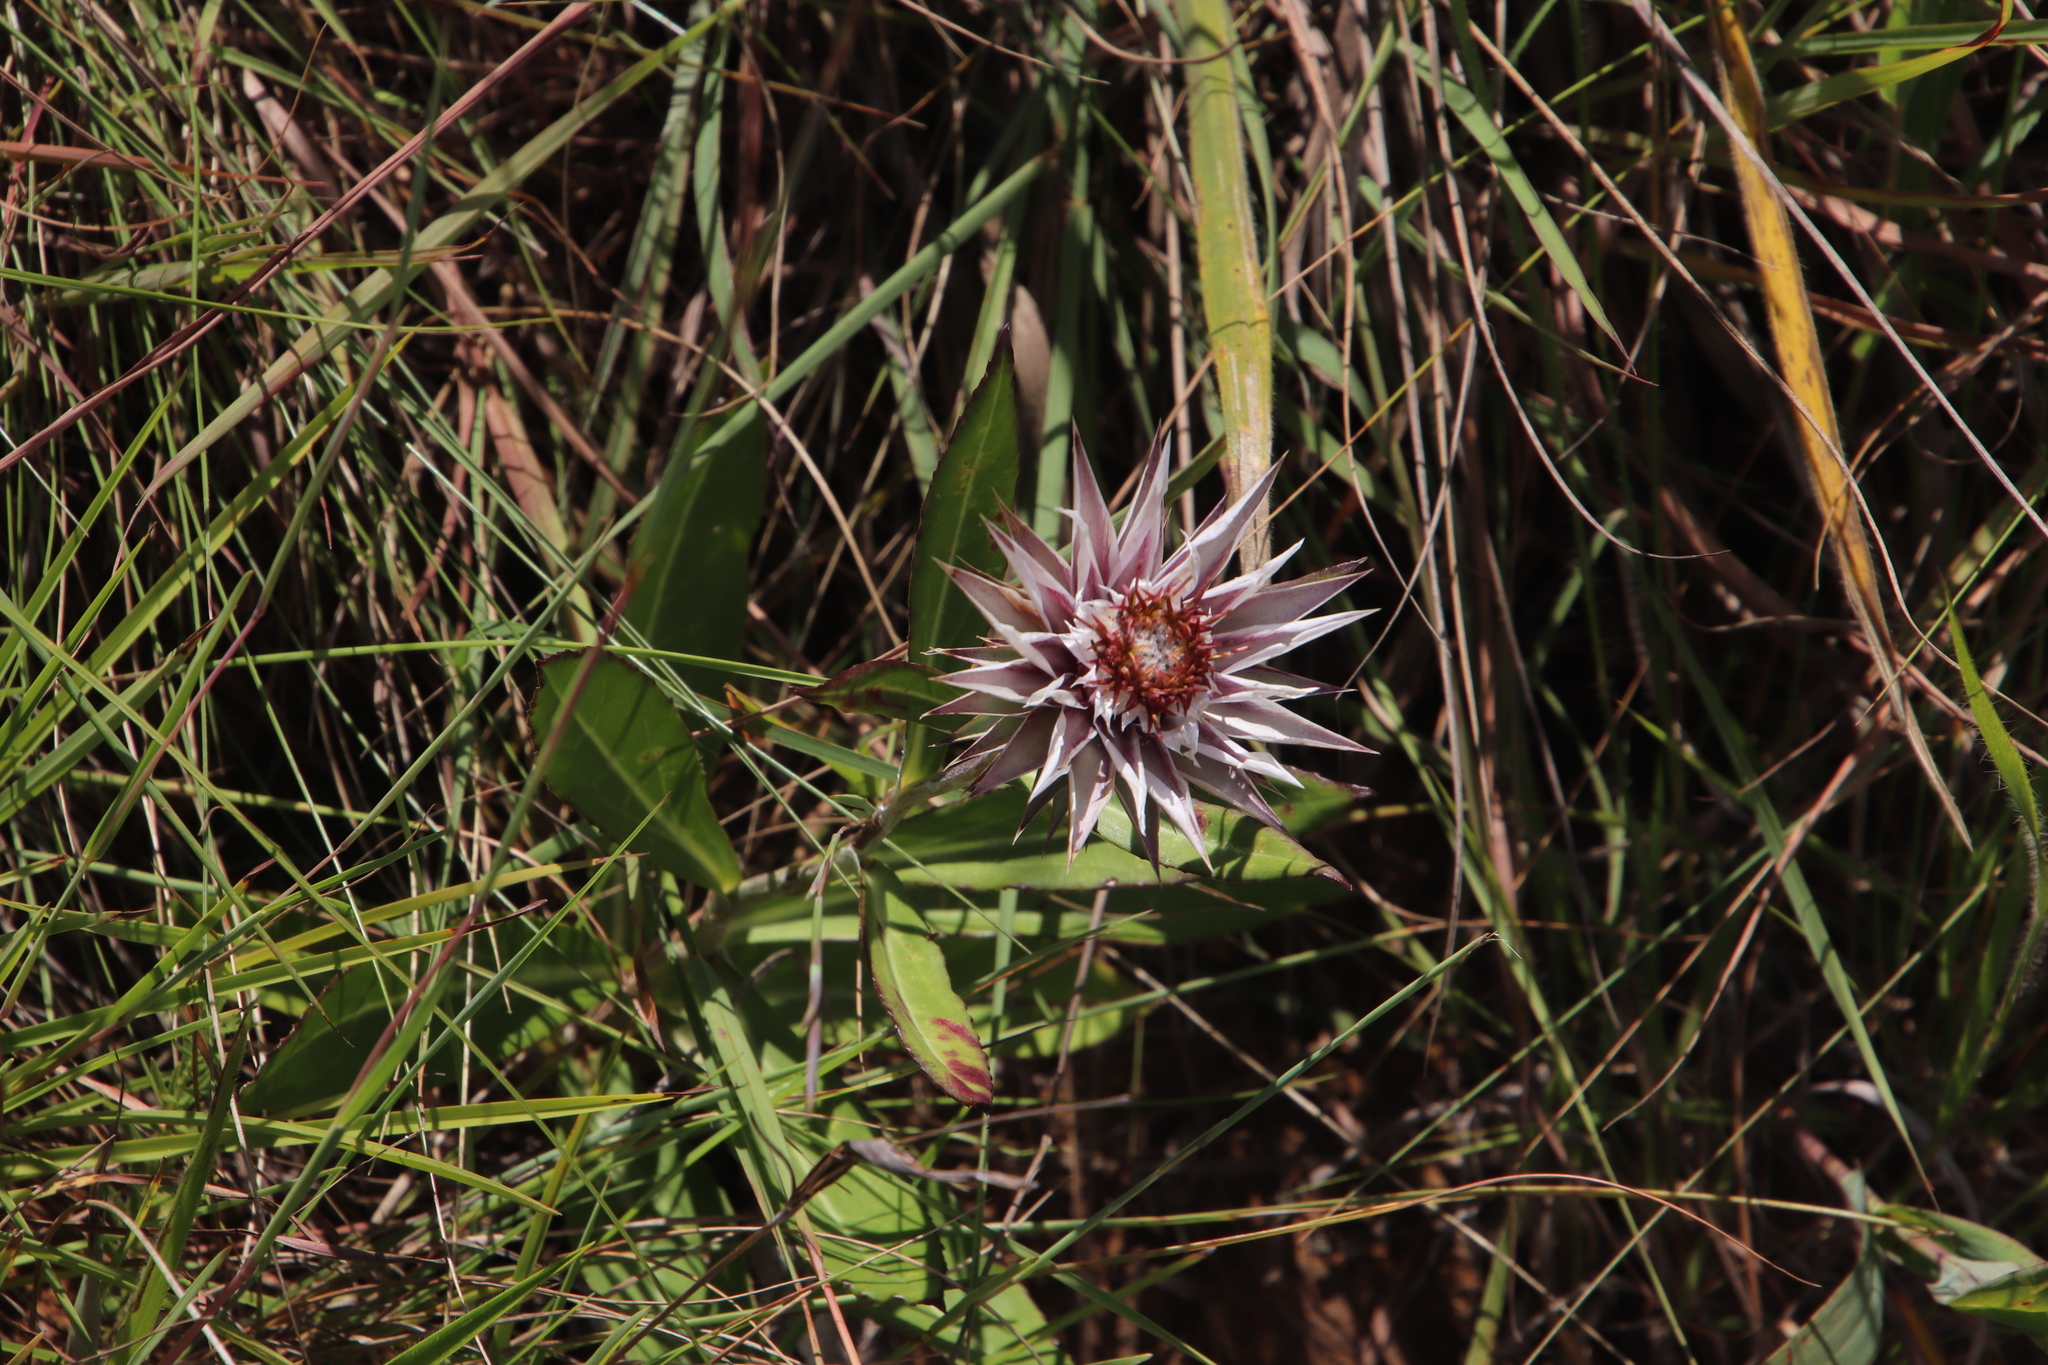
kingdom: Plantae
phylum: Tracheophyta
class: Magnoliopsida
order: Asterales
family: Asteraceae
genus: Macledium
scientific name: Macledium zeyheri
